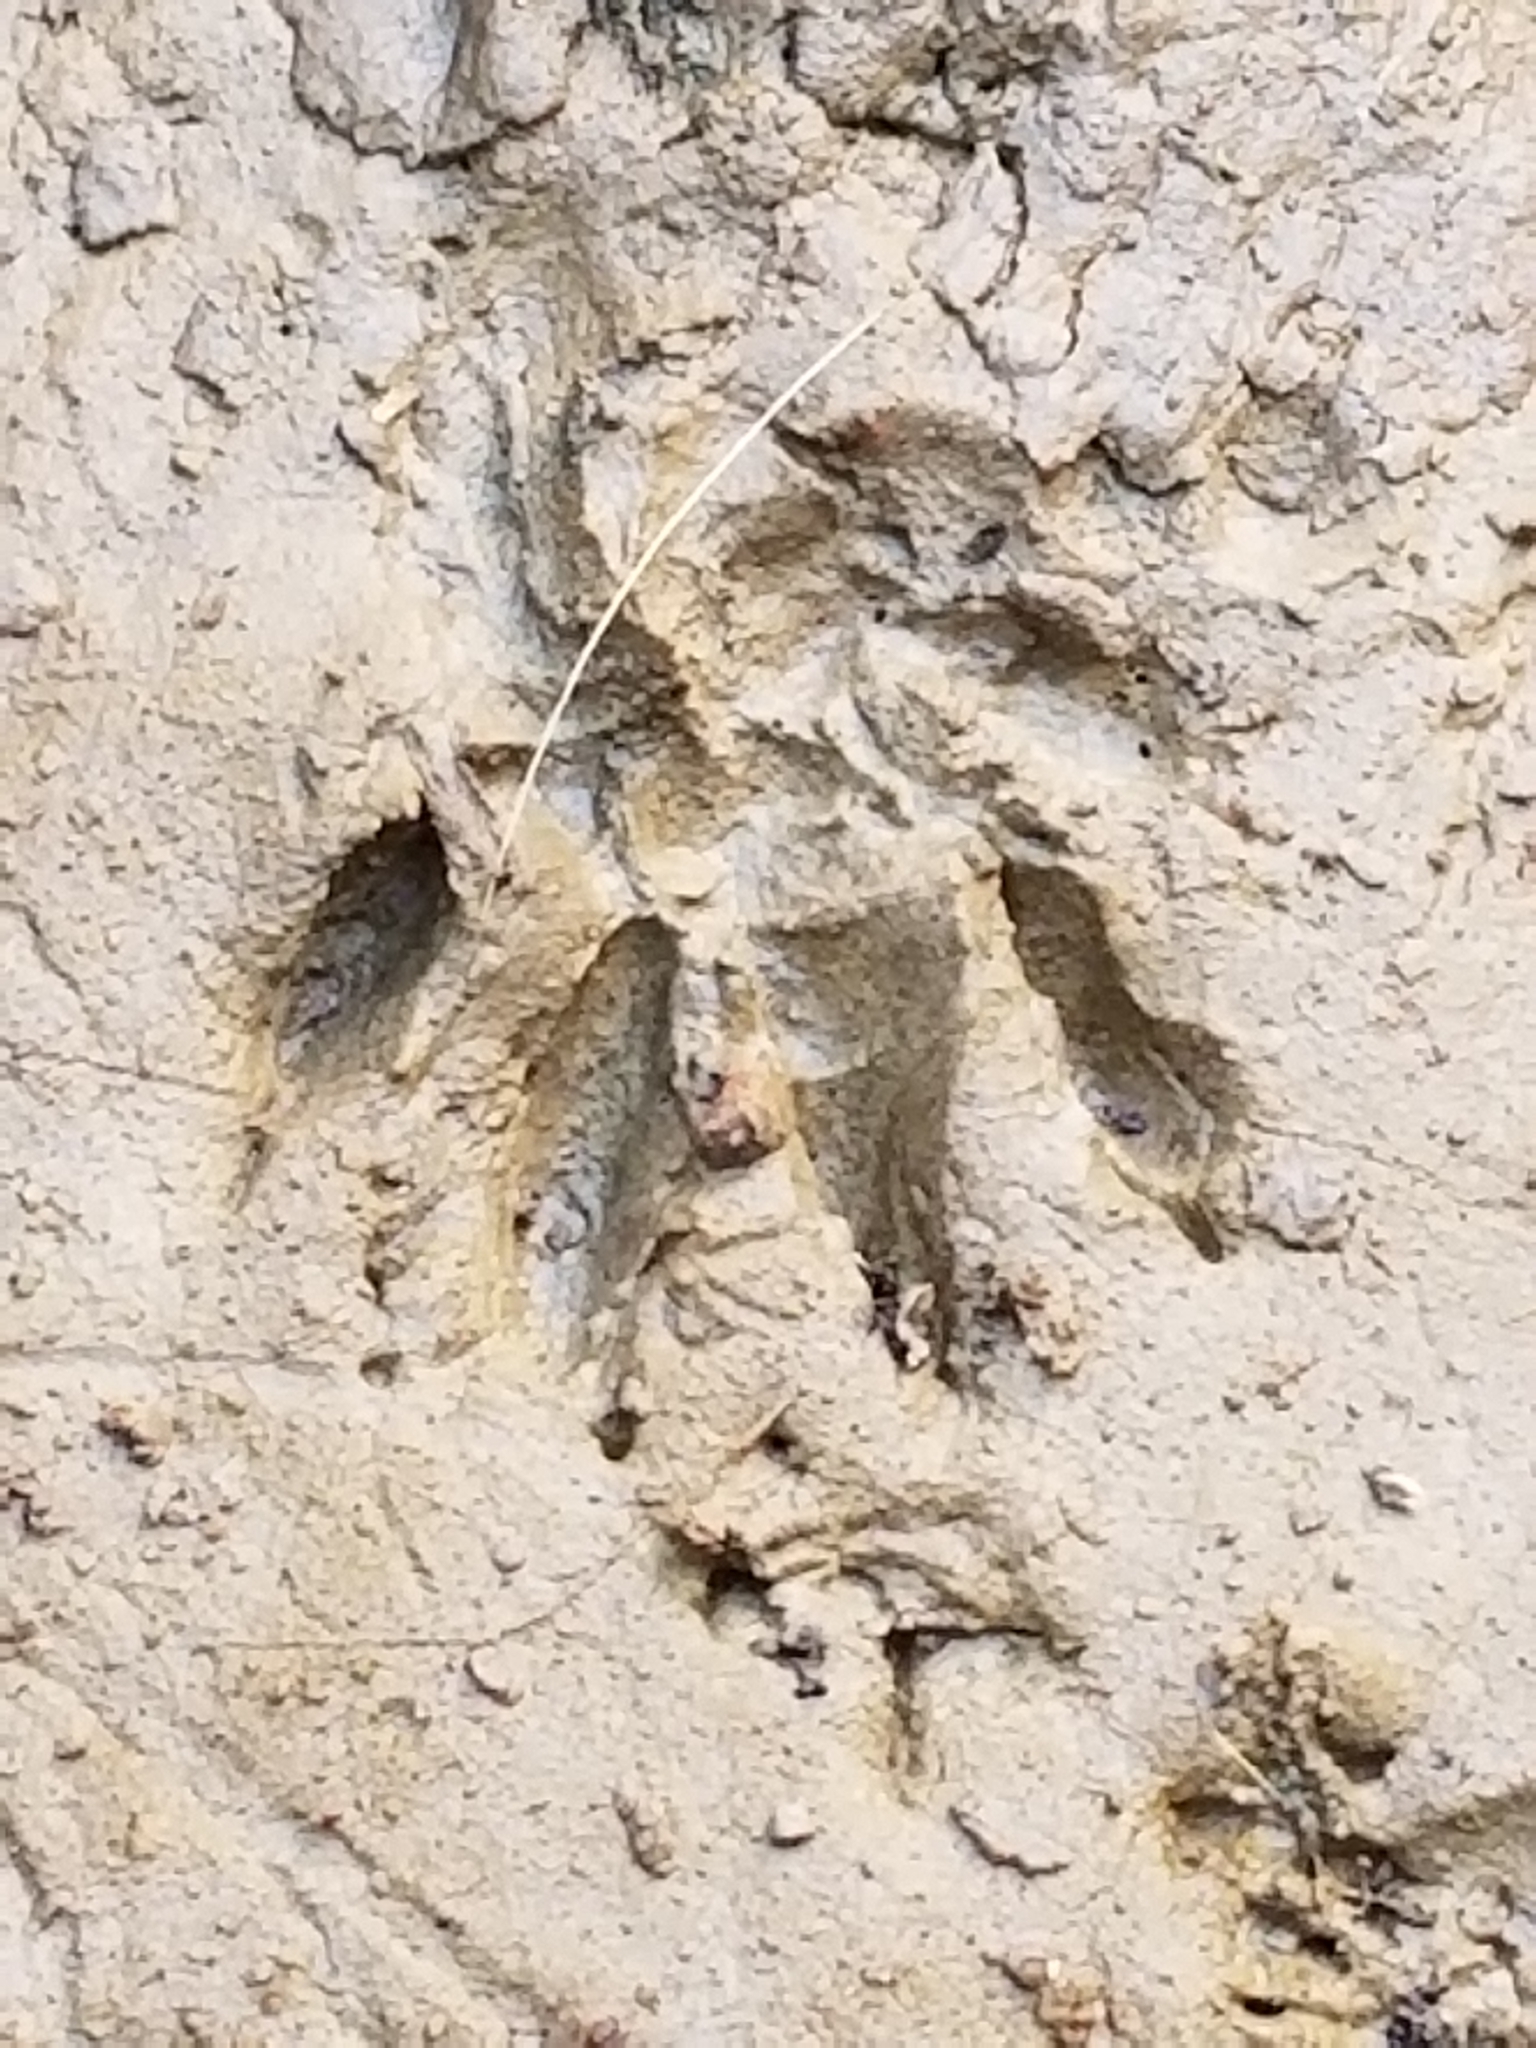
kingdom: Animalia
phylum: Chordata
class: Mammalia
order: Carnivora
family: Procyonidae
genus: Procyon
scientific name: Procyon lotor
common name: Raccoon
